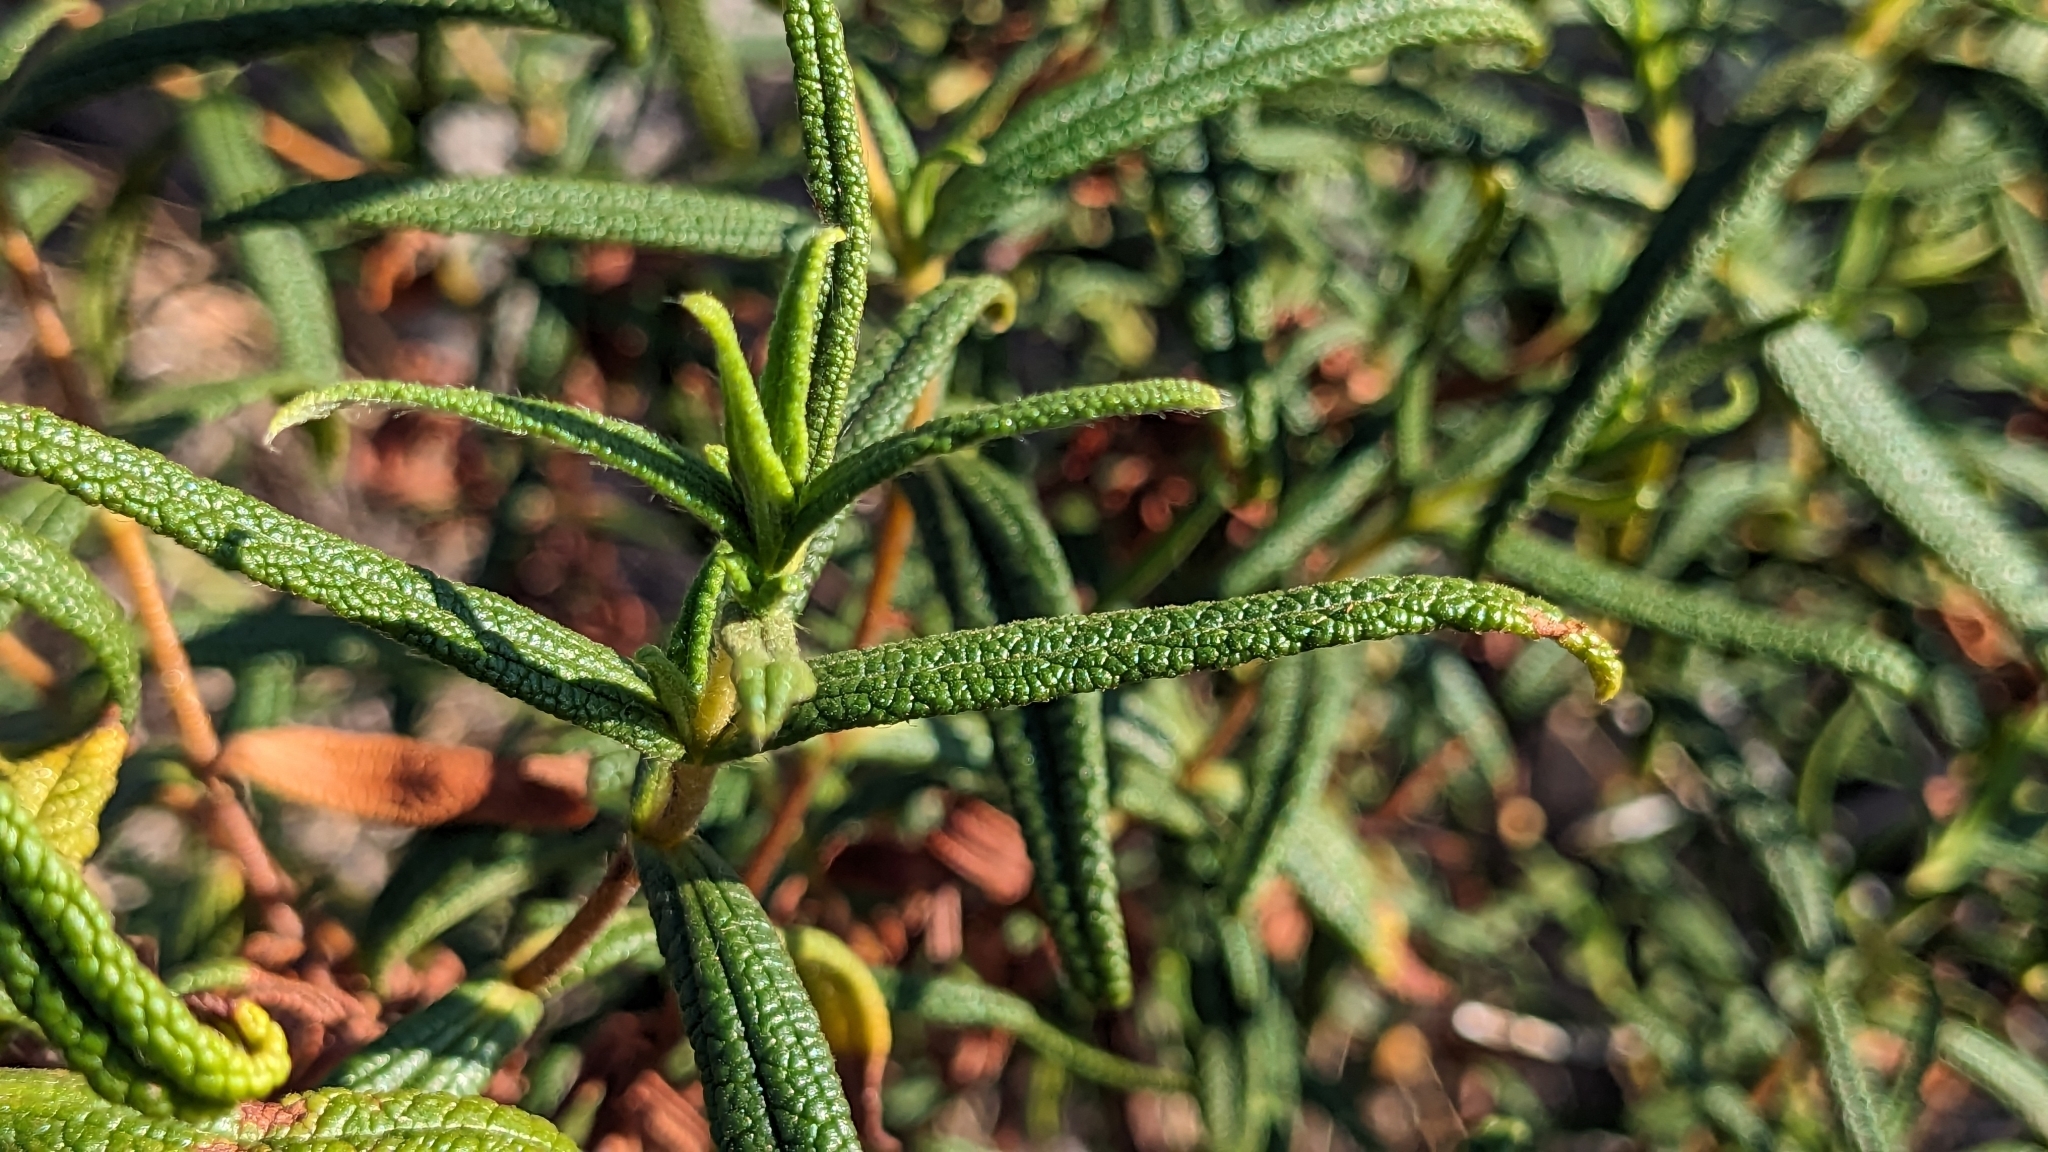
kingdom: Plantae
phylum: Tracheophyta
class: Magnoliopsida
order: Malvales
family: Cistaceae
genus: Cistus
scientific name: Cistus monspeliensis
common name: Montpelier cistus
